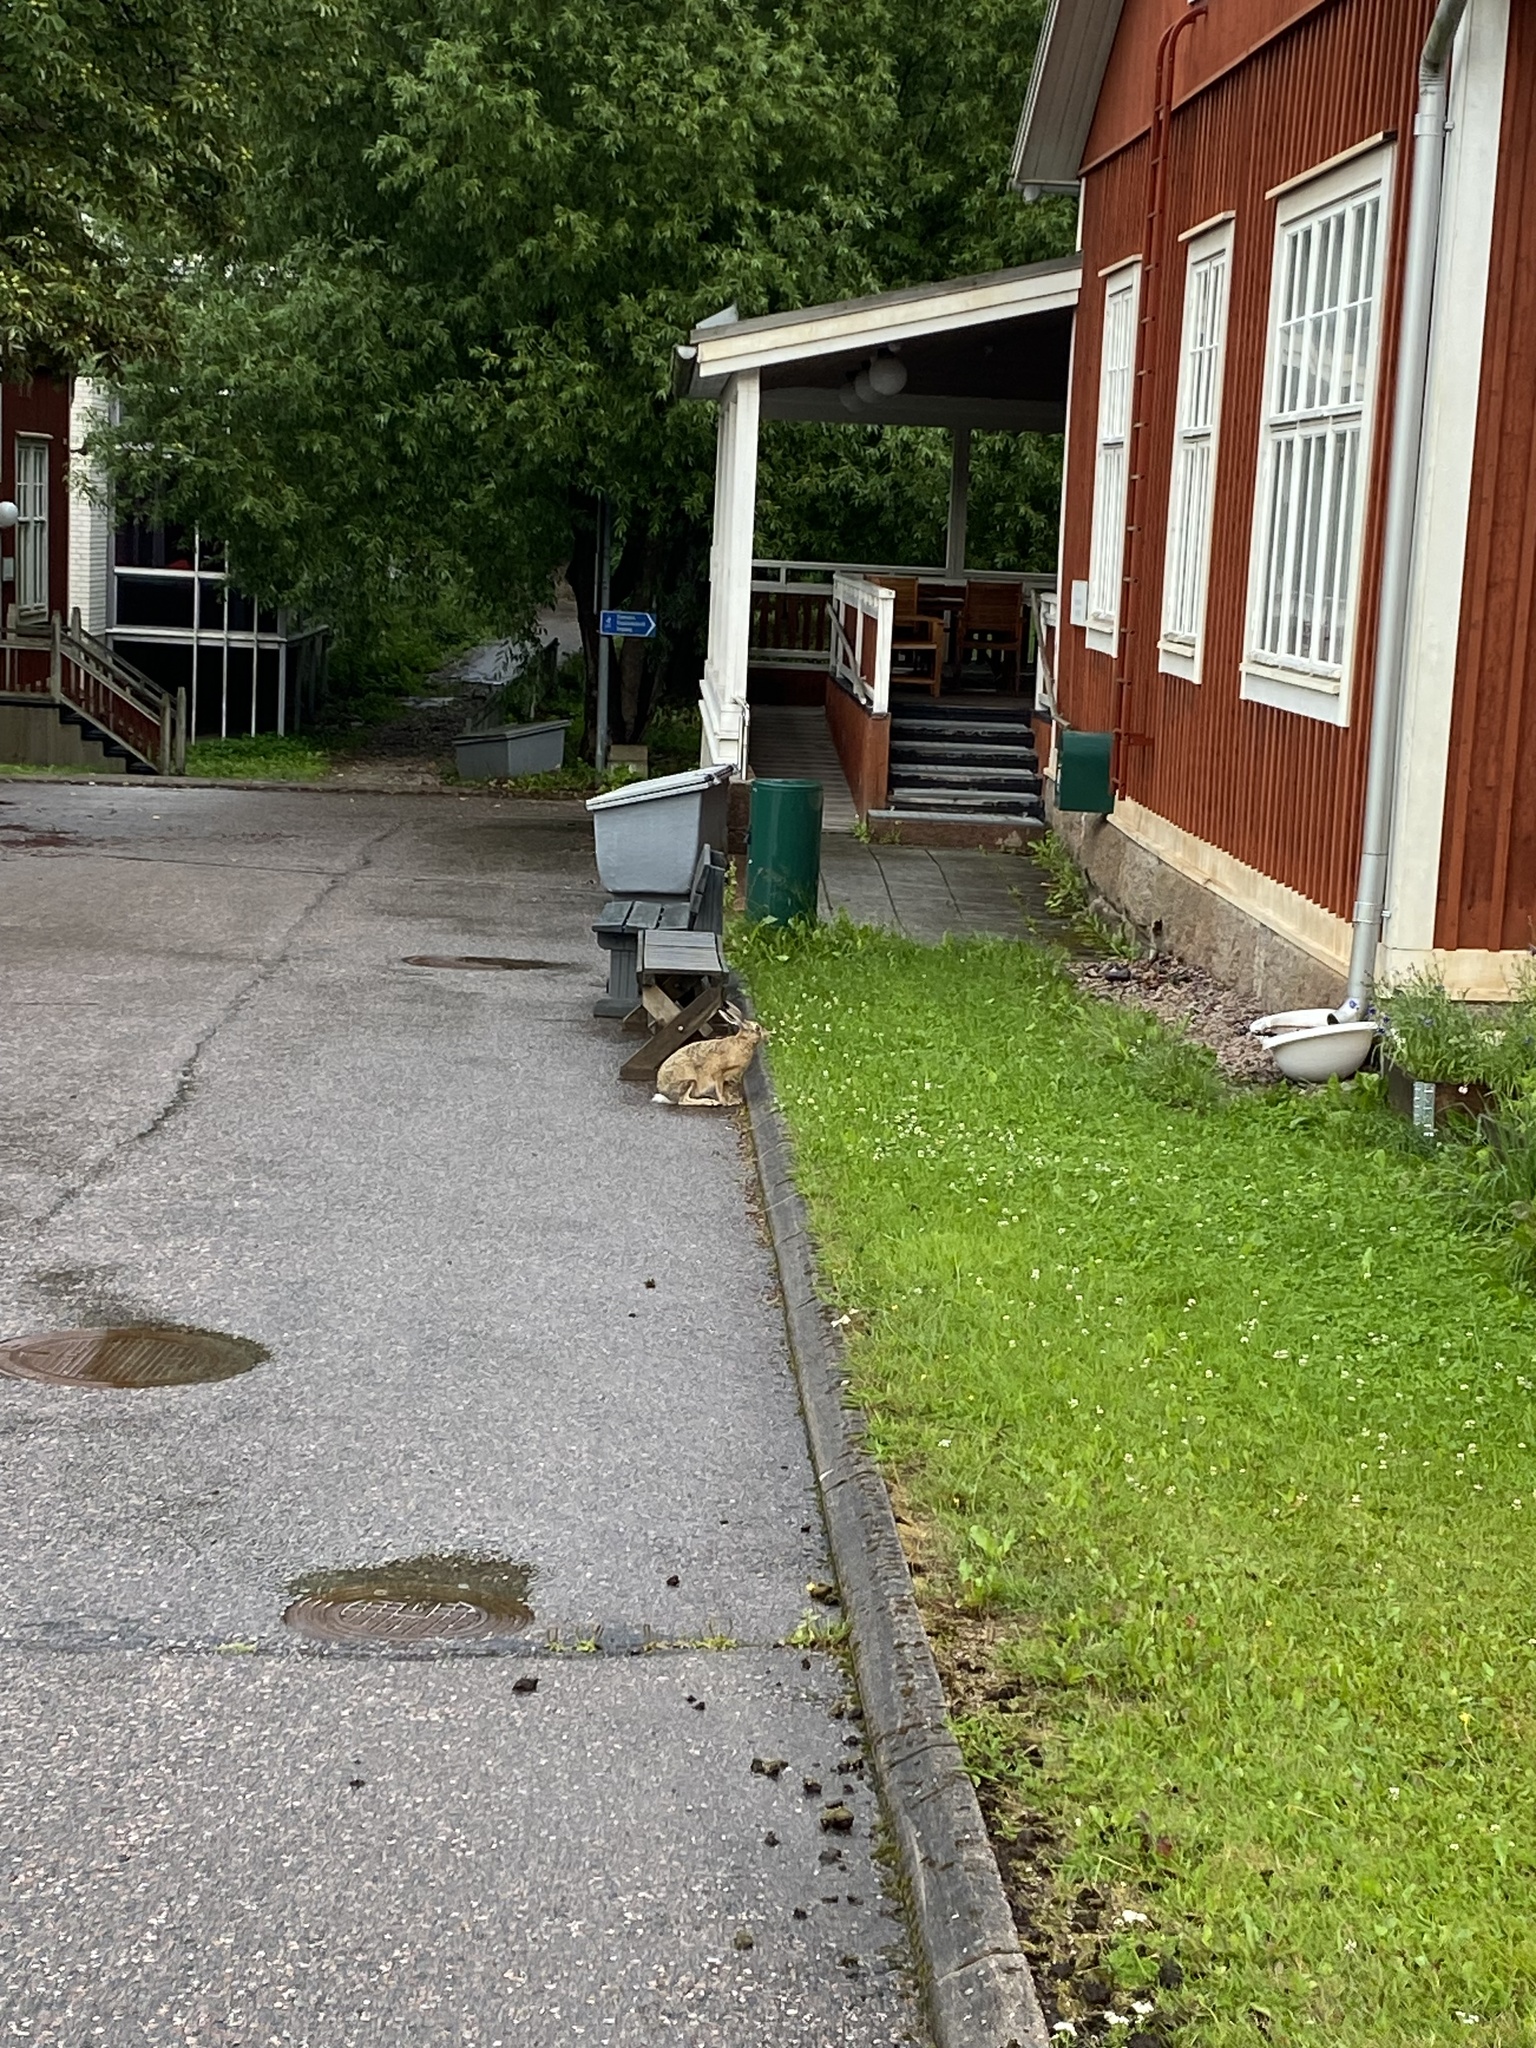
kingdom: Animalia
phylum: Chordata
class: Mammalia
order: Lagomorpha
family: Leporidae
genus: Lepus
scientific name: Lepus europaeus
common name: European hare
